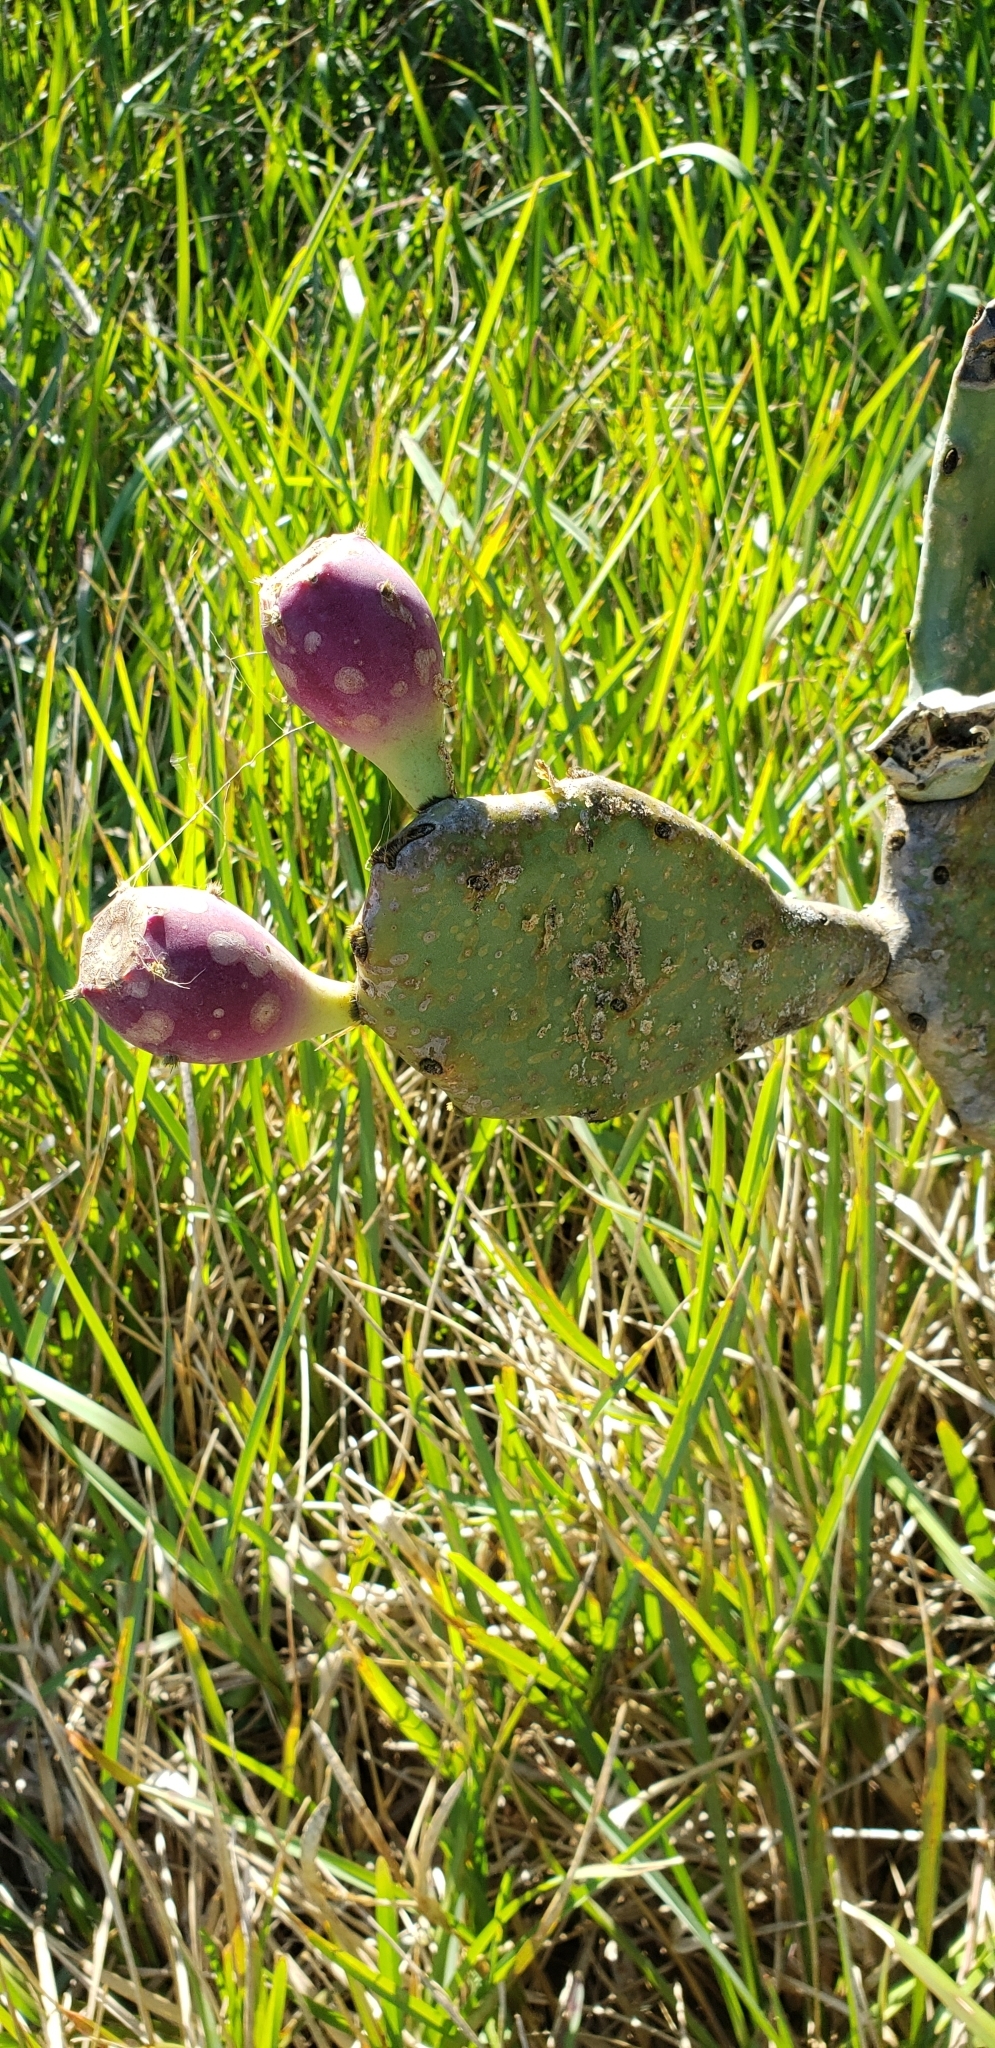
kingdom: Plantae
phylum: Tracheophyta
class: Magnoliopsida
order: Caryophyllales
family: Cactaceae
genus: Opuntia
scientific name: Opuntia stricta
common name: Erect pricklypear
